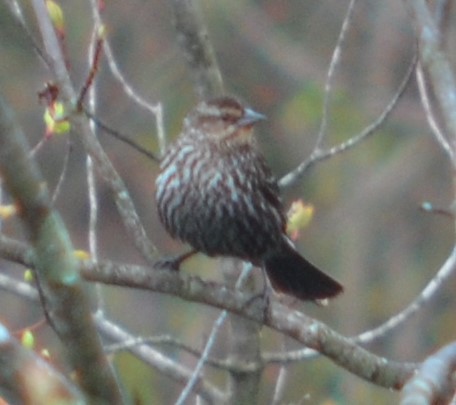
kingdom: Animalia
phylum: Chordata
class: Aves
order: Passeriformes
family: Icteridae
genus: Agelaius
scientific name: Agelaius phoeniceus
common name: Red-winged blackbird
